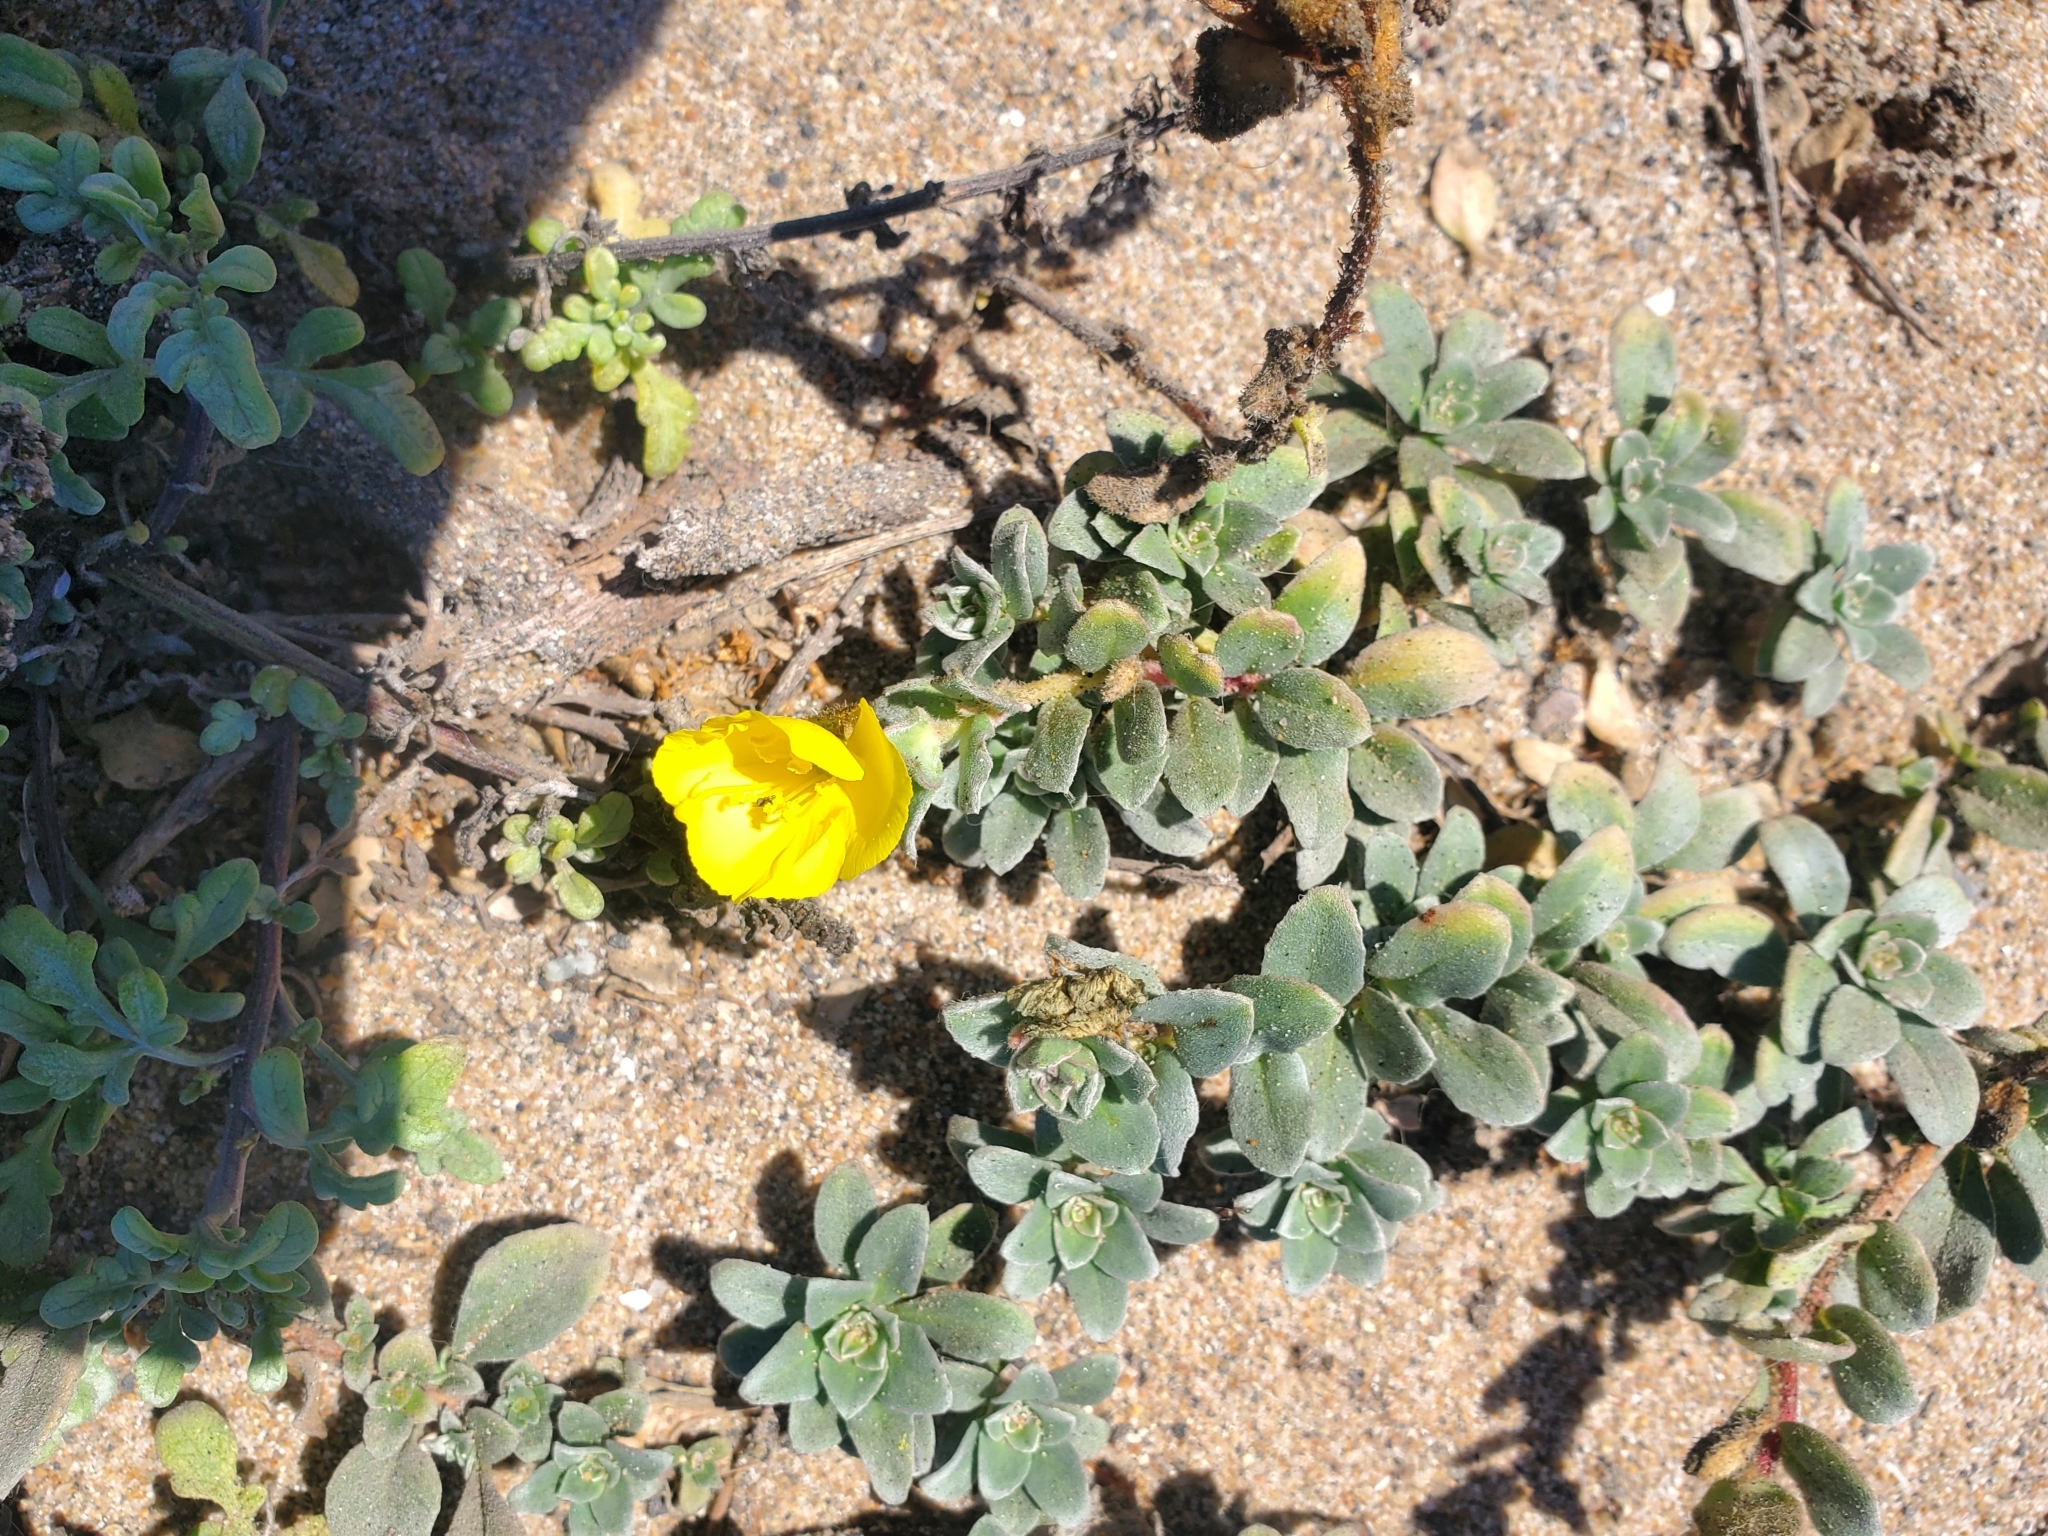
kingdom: Plantae
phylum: Tracheophyta
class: Magnoliopsida
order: Myrtales
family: Onagraceae
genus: Camissoniopsis
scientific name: Camissoniopsis cheiranthifolia
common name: Beach suncup
